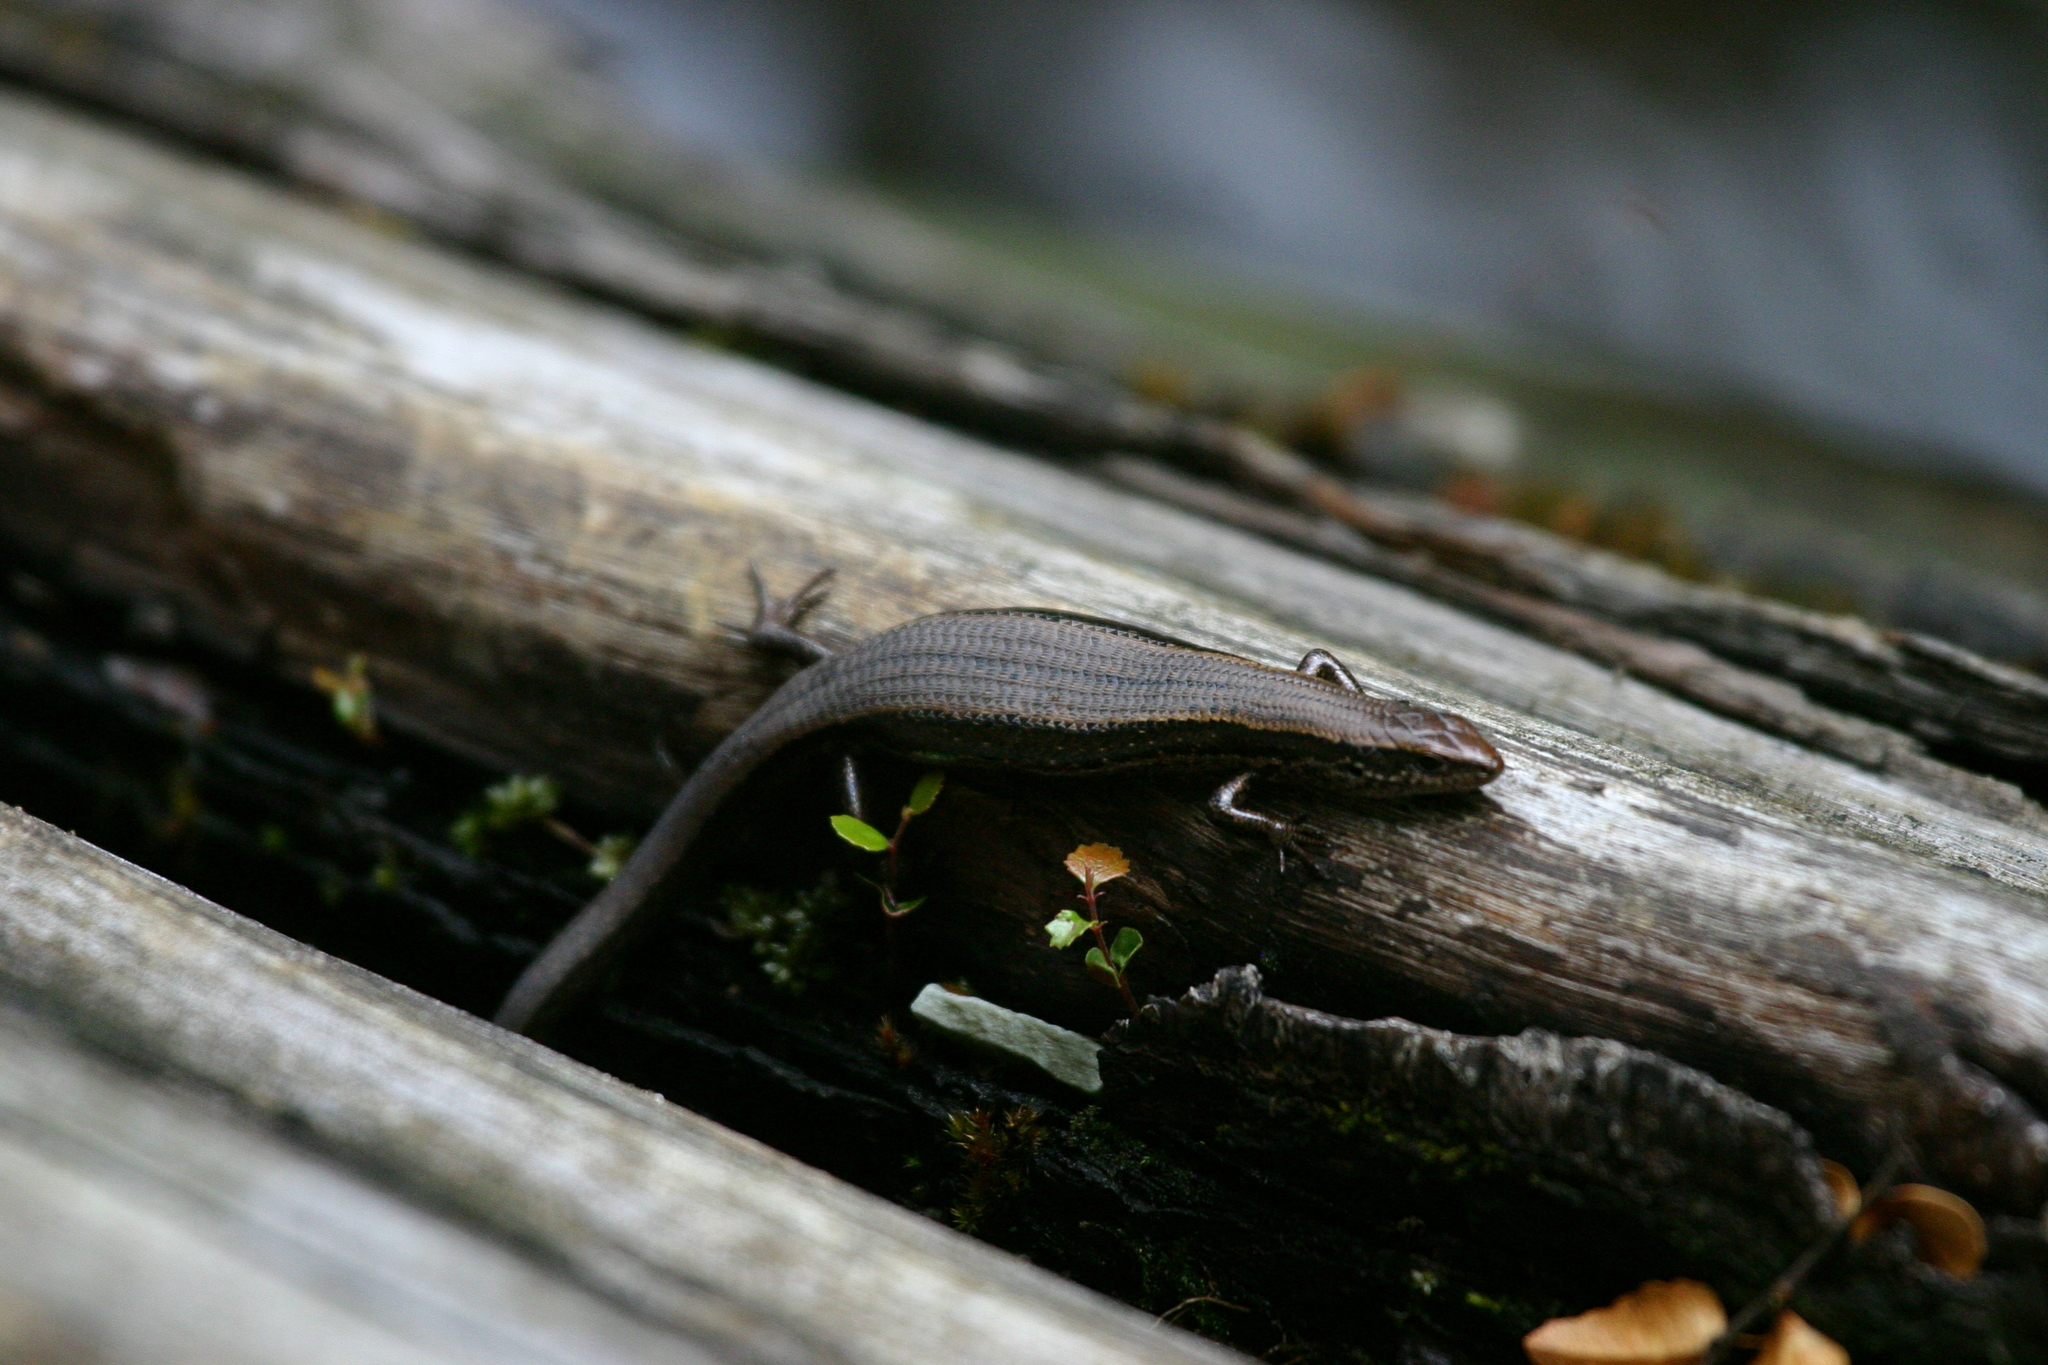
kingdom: Animalia
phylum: Chordata
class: Squamata
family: Scincidae
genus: Carinascincus
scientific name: Carinascincus metallicus
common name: Metallic cool-skink
